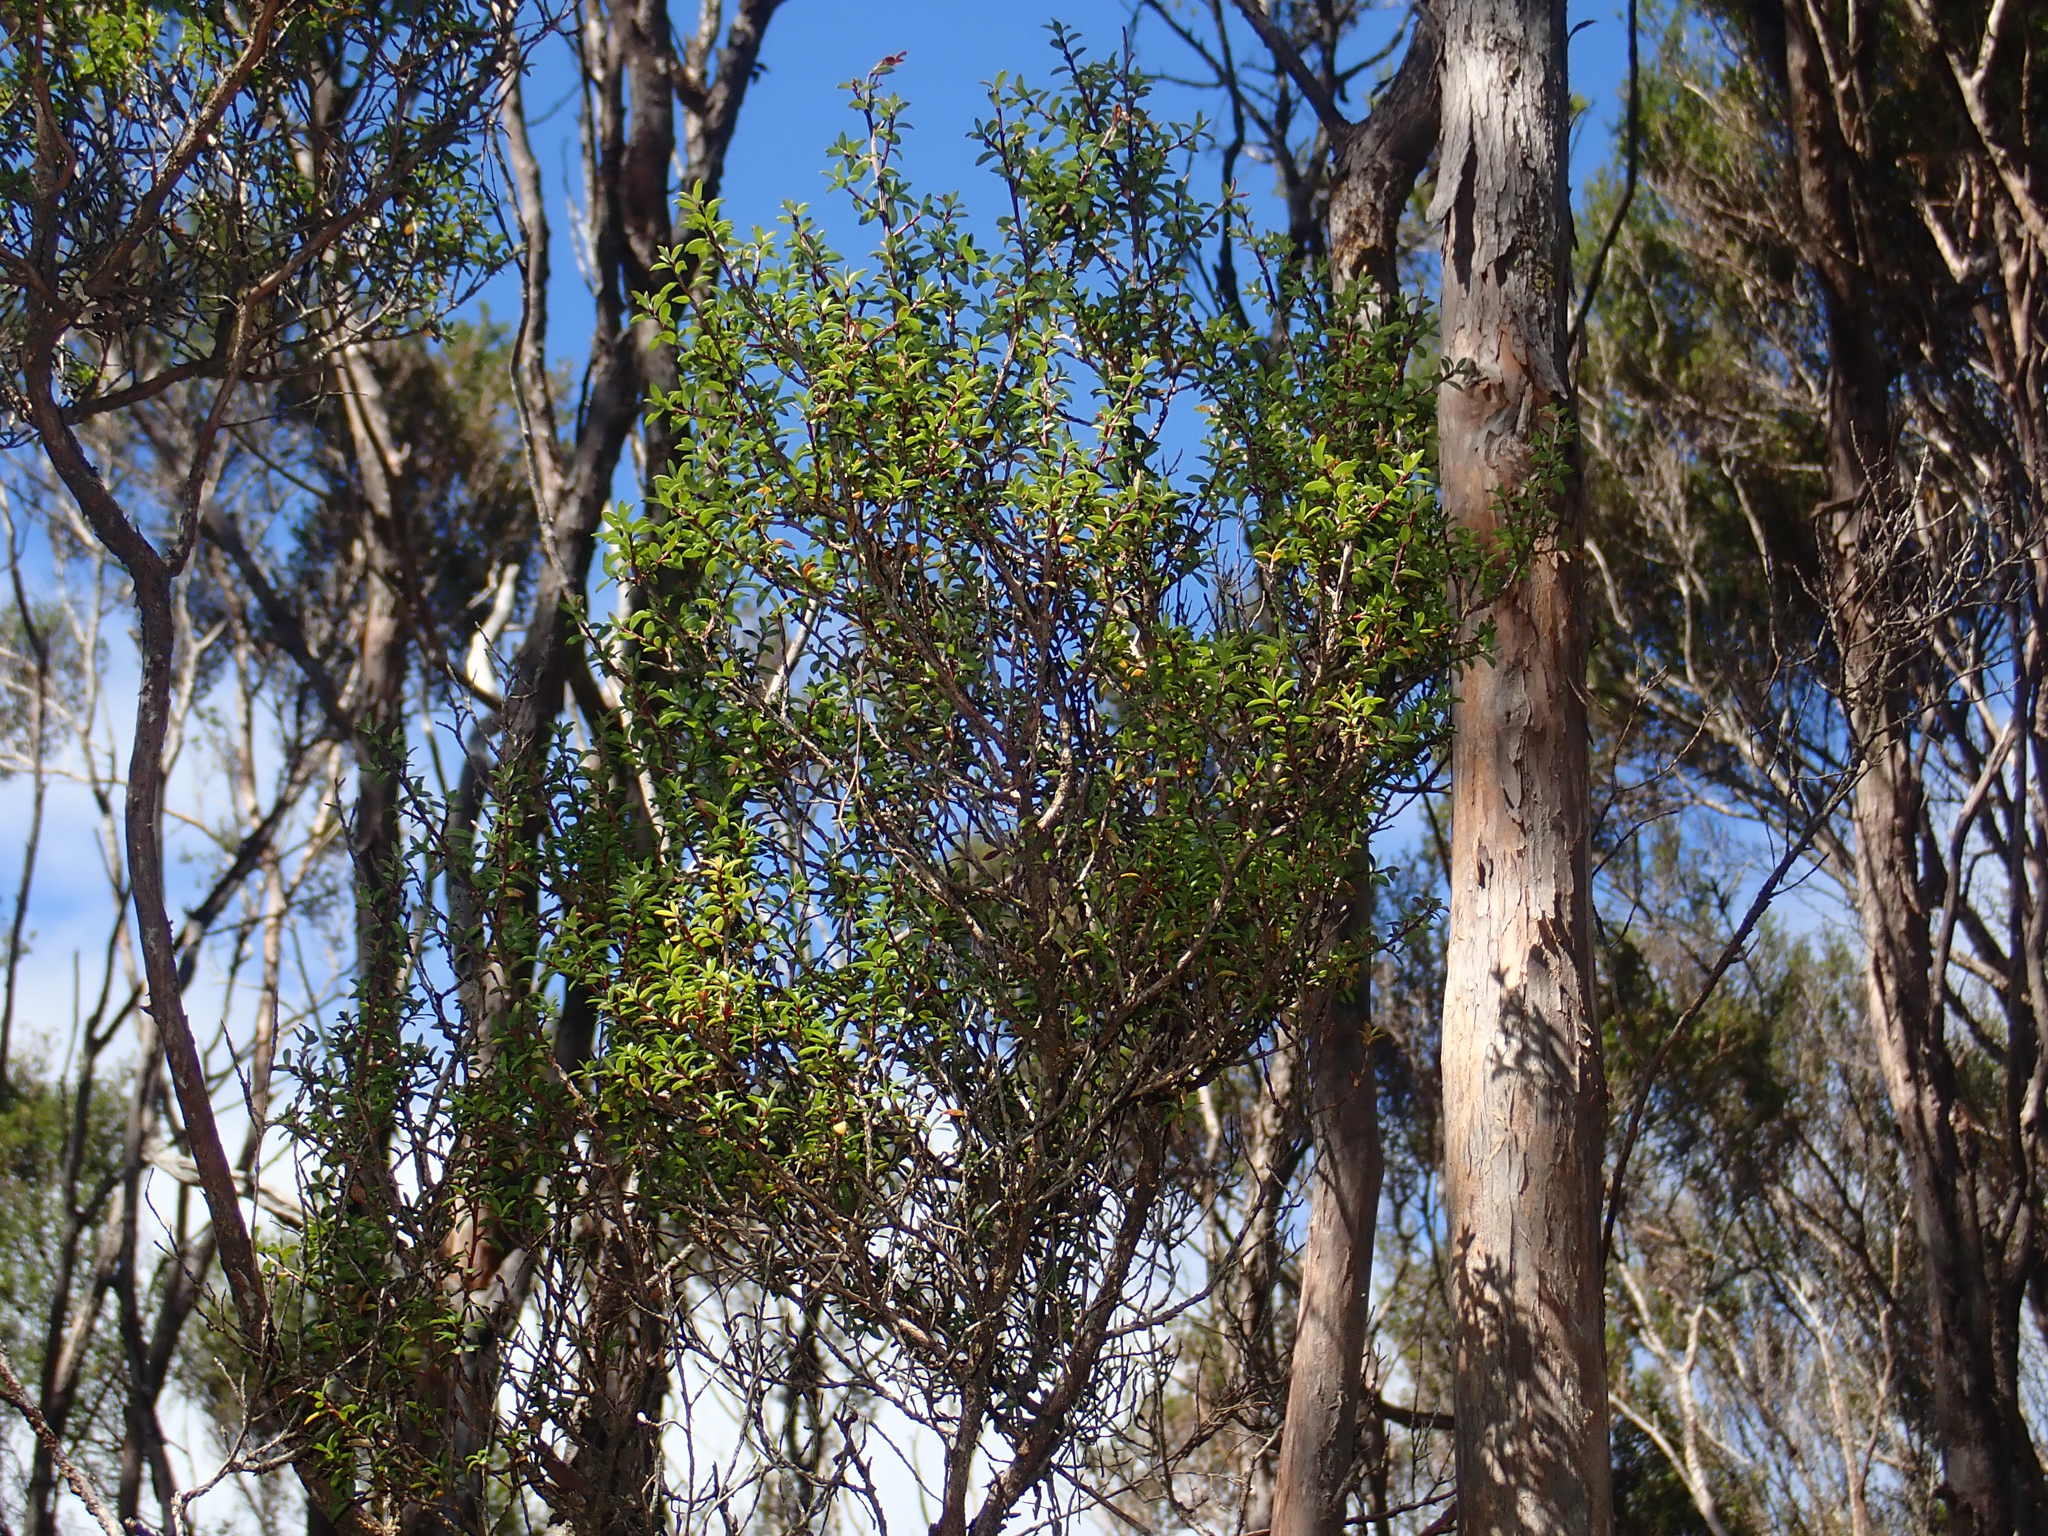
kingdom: Plantae
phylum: Tracheophyta
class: Magnoliopsida
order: Myrtales
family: Myrtaceae
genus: Leptospermum
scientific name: Leptospermum scoparium
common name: Broom tea-tree
